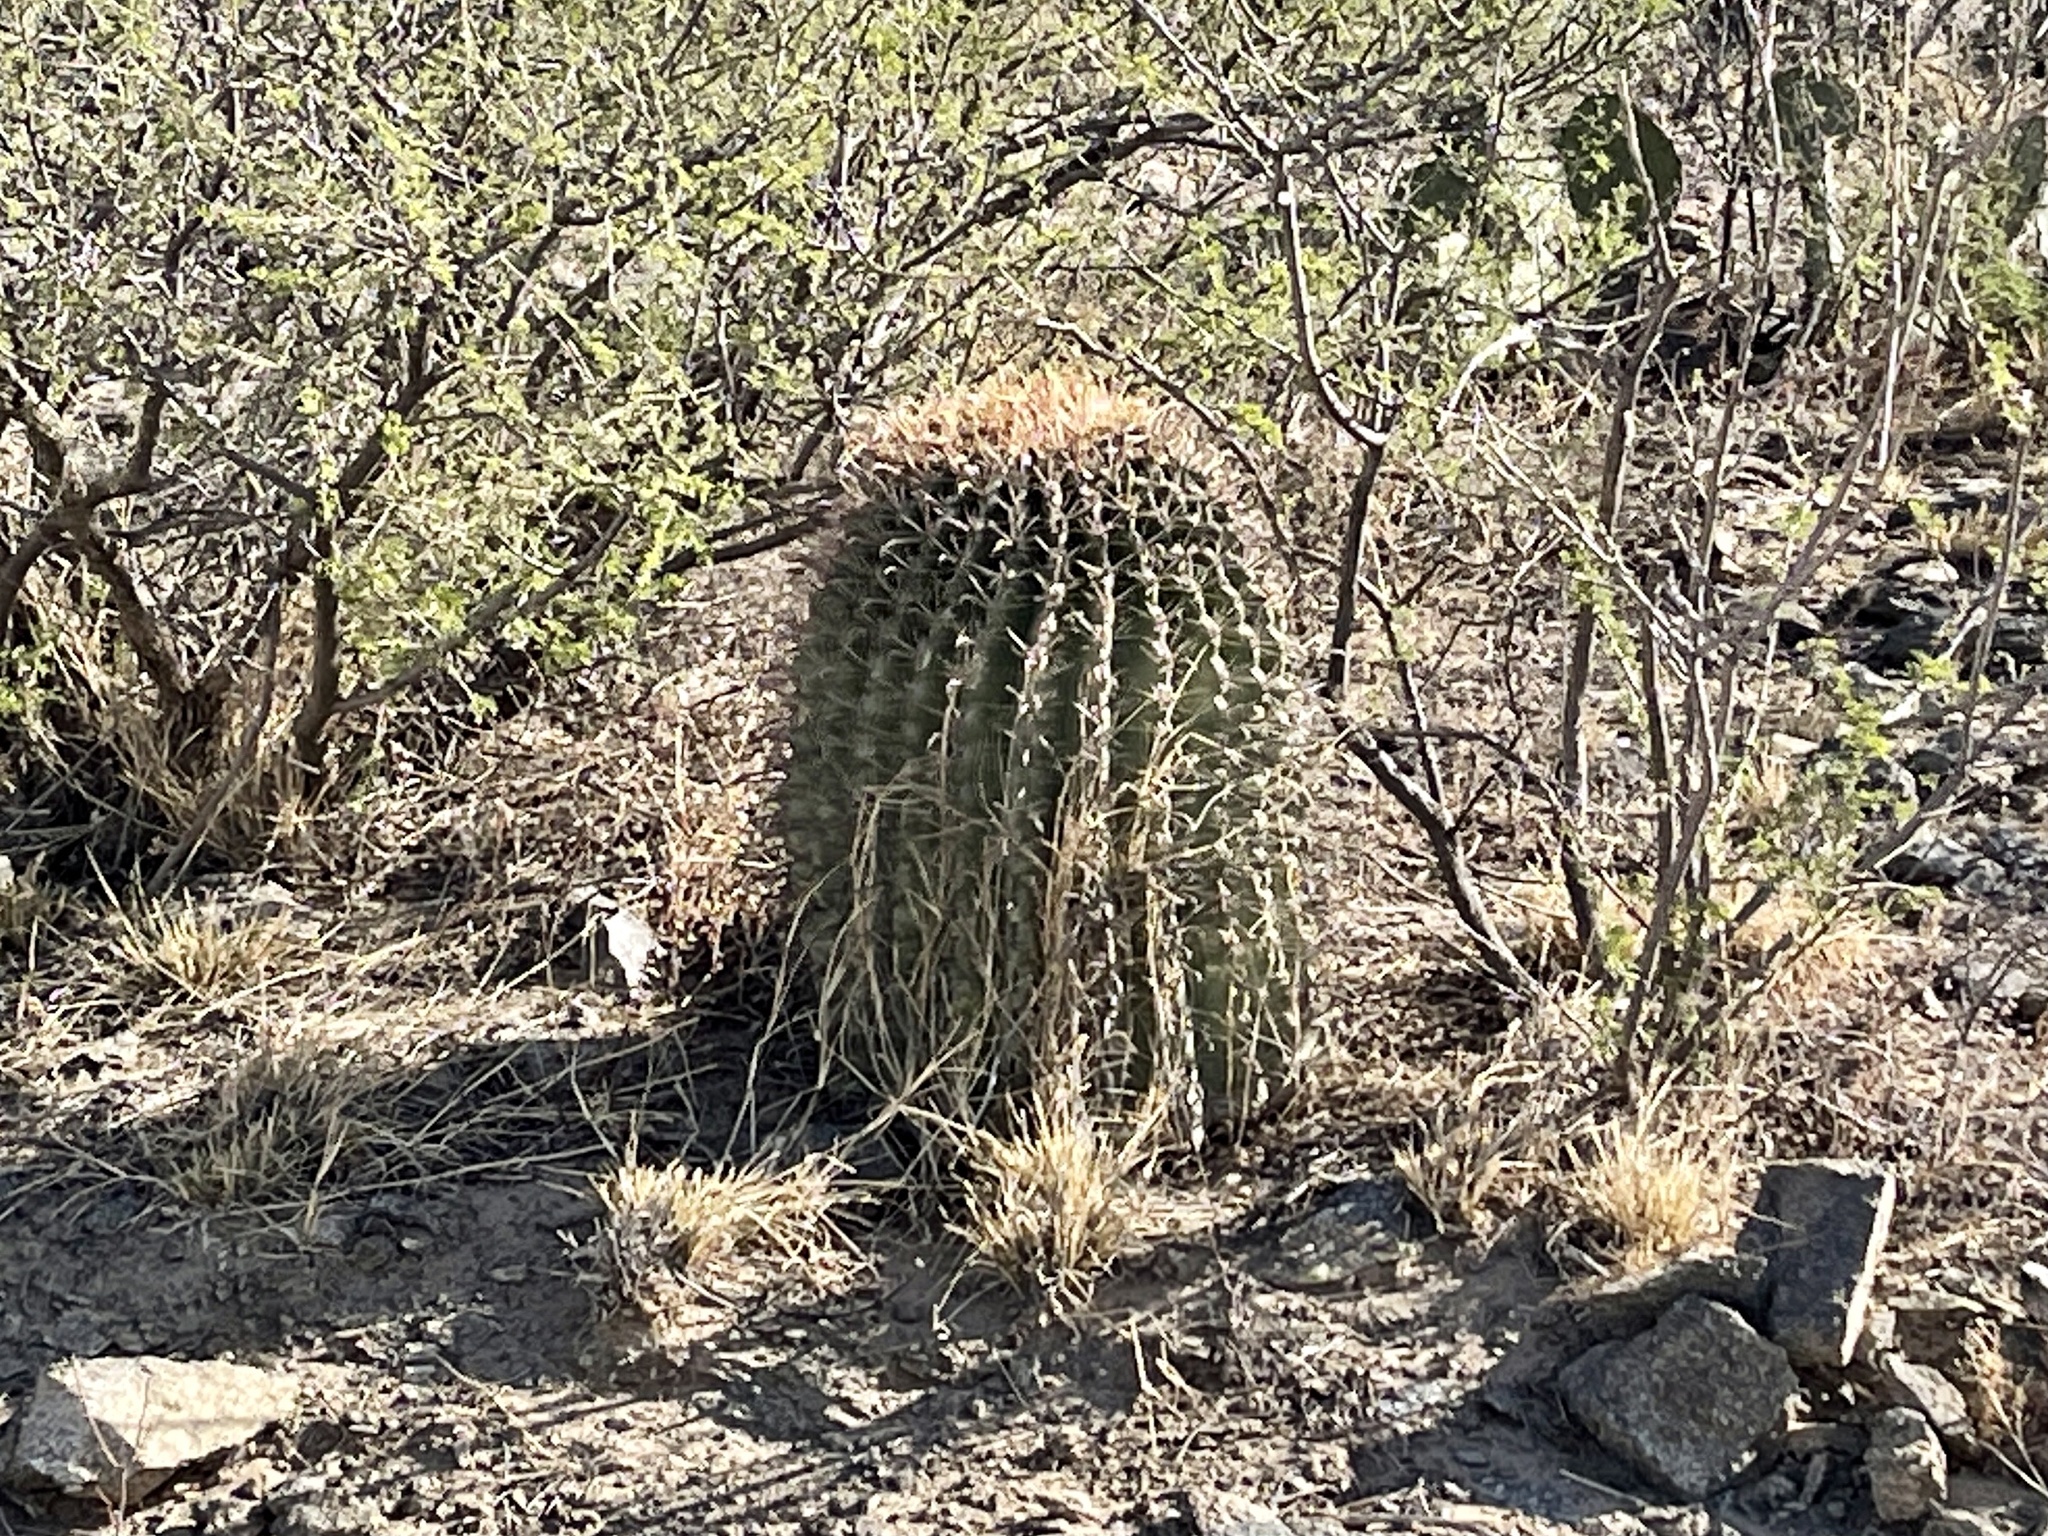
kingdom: Plantae
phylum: Tracheophyta
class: Magnoliopsida
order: Caryophyllales
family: Cactaceae
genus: Ferocactus
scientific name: Ferocactus wislizeni
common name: Candy barrel cactus
